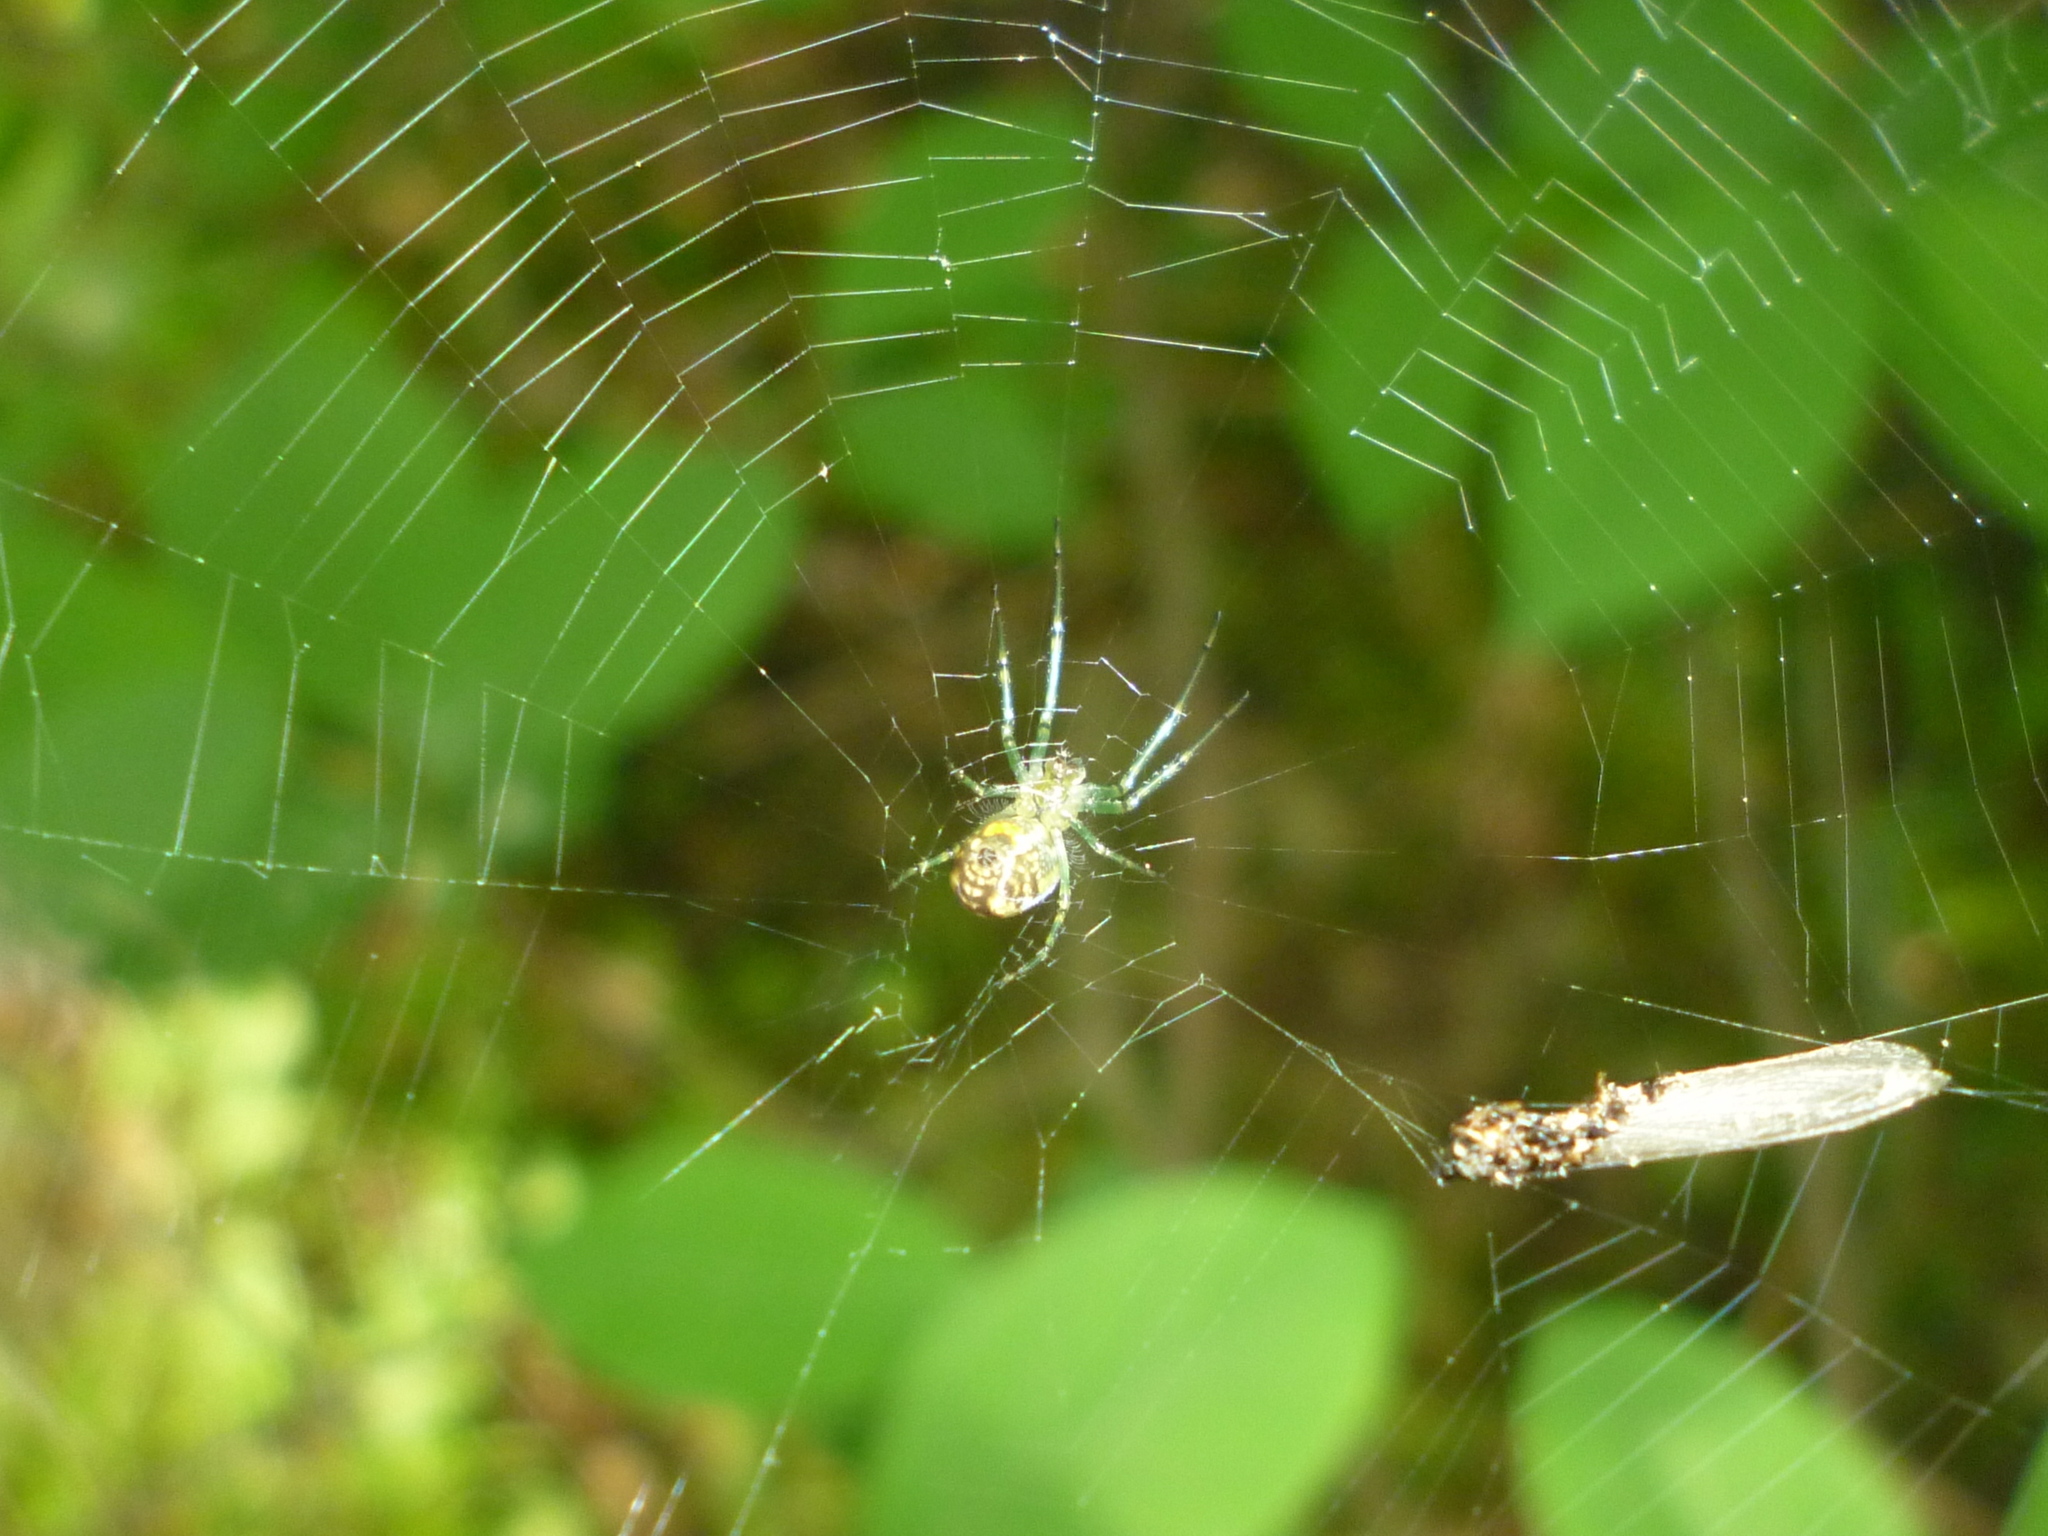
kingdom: Animalia
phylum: Arthropoda
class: Arachnida
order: Araneae
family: Tetragnathidae
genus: Leucauge
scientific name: Leucauge venusta
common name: Longjawed orb weavers
